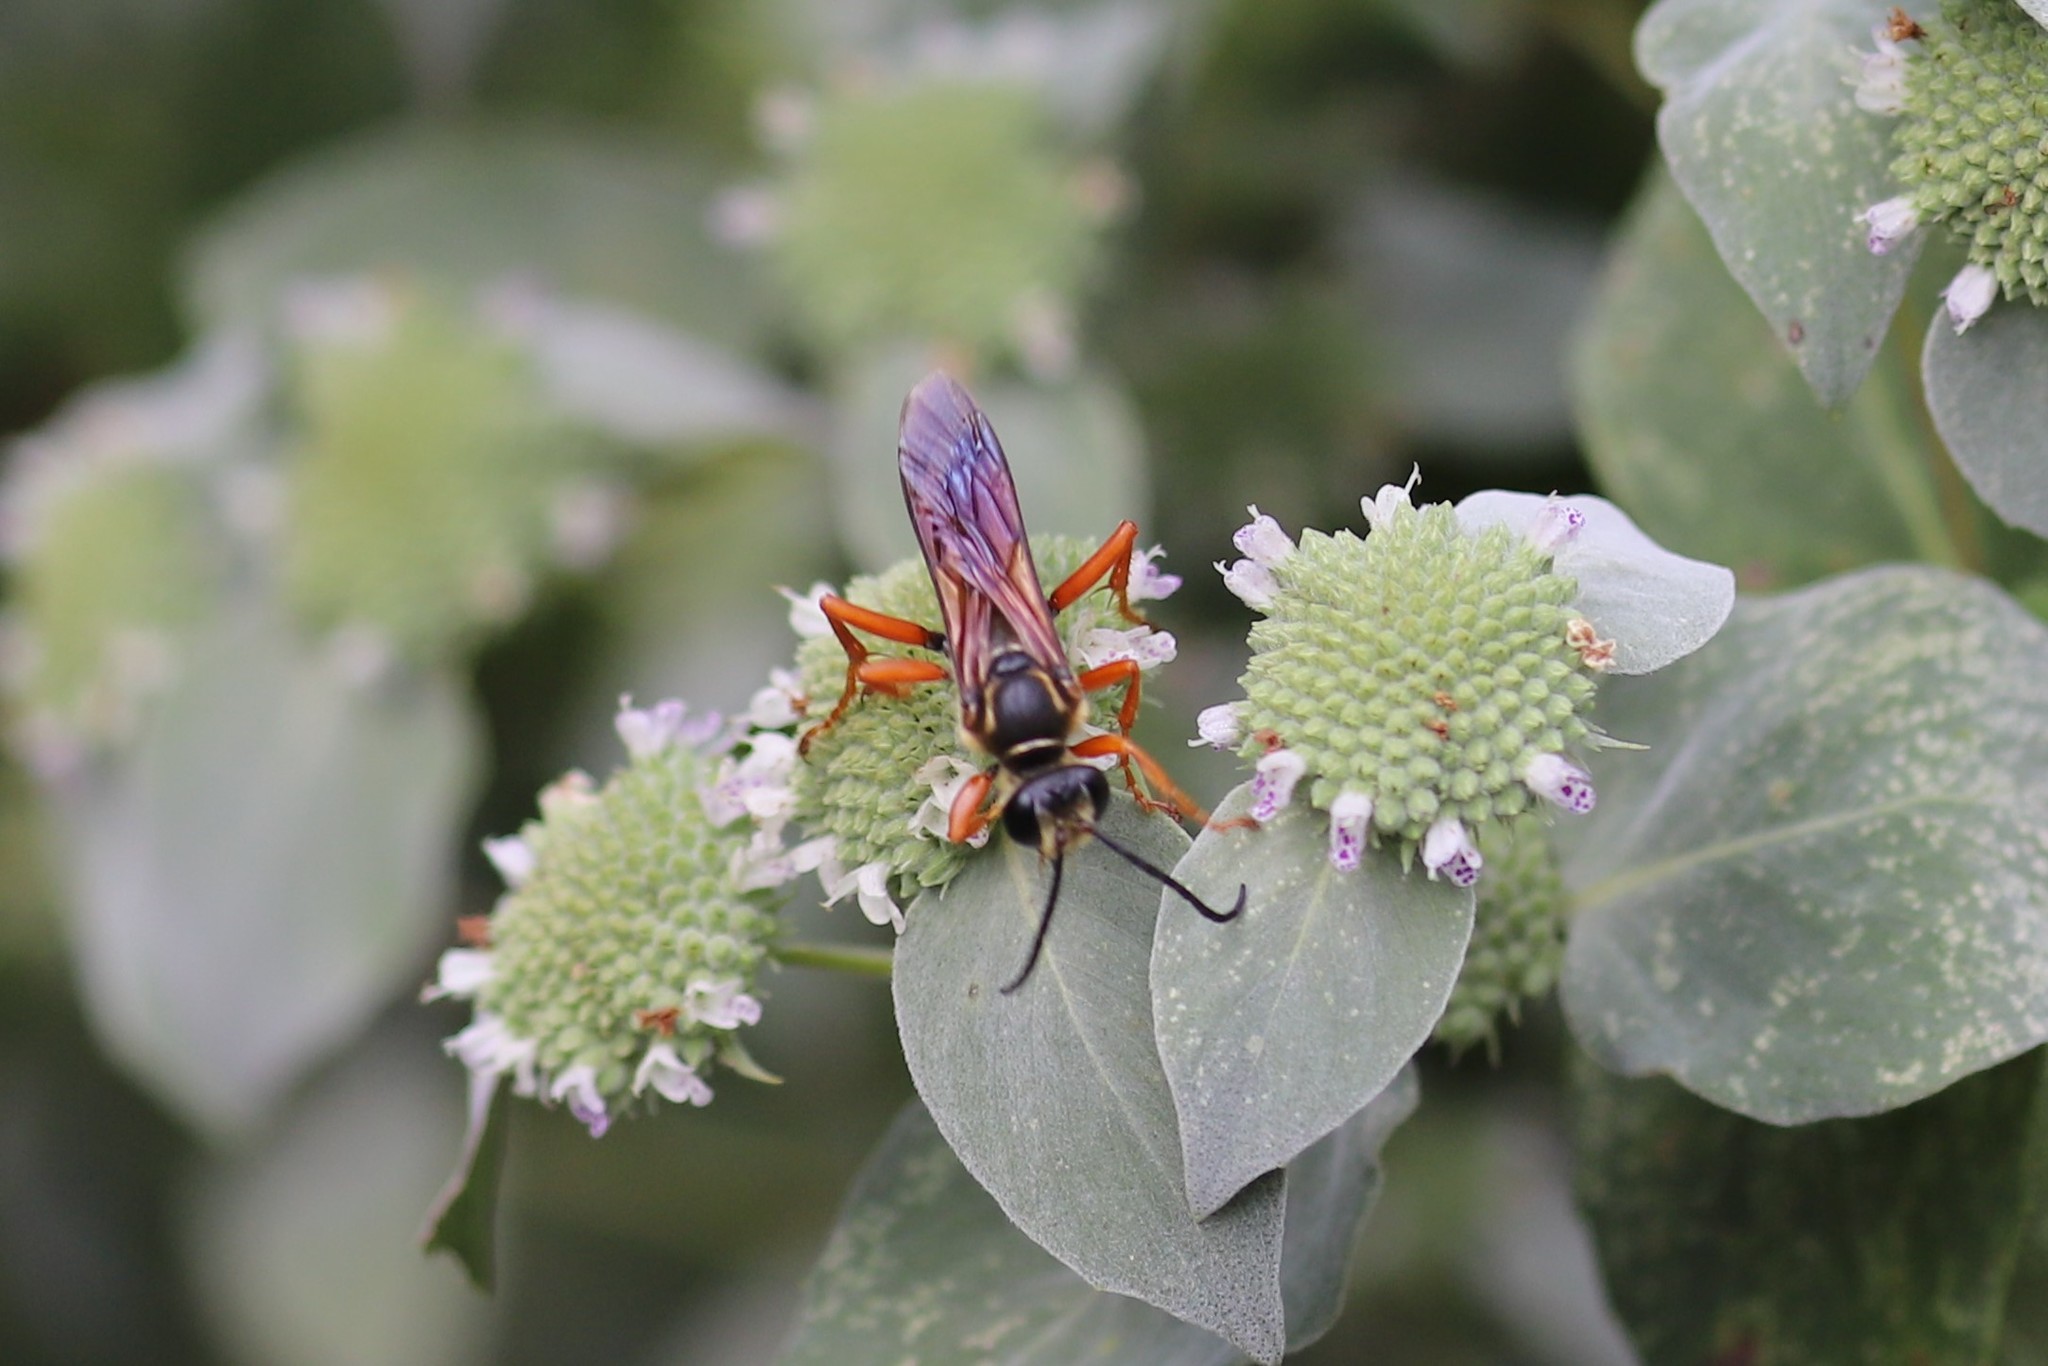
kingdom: Animalia
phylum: Arthropoda
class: Insecta
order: Hymenoptera
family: Sphecidae
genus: Sphex
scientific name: Sphex ichneumoneus
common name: Great golden digger wasp
